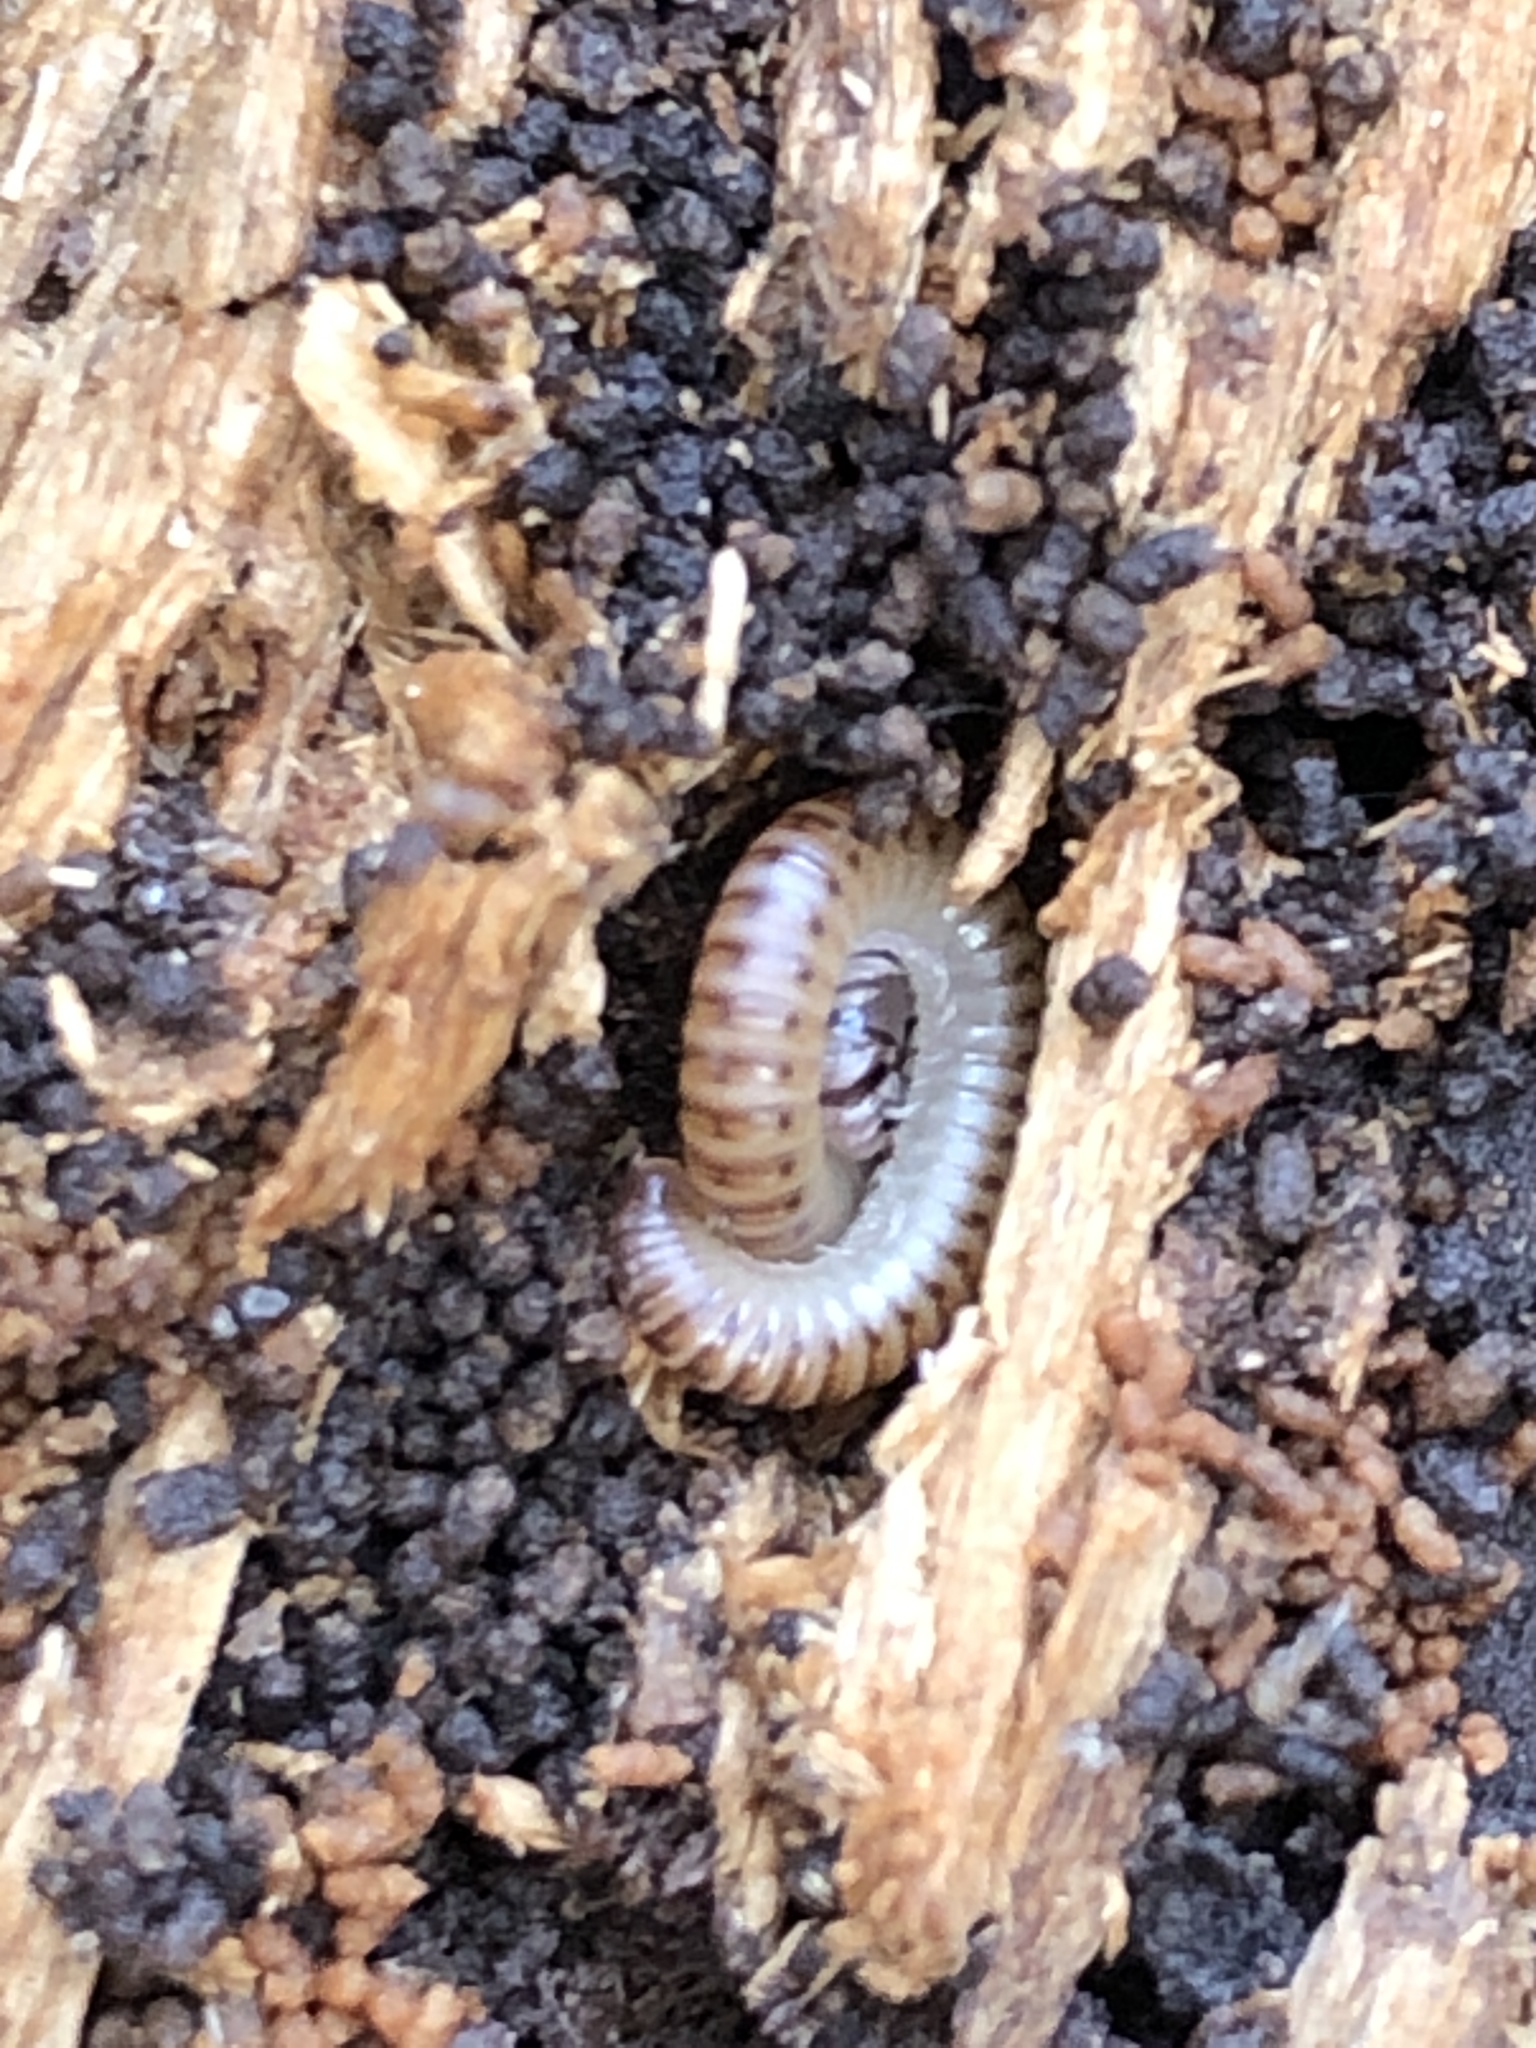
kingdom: Animalia
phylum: Arthropoda
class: Diplopoda
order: Julida
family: Julidae
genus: Cylindroiulus
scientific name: Cylindroiulus punctatus
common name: Blunt-tailed millipede
